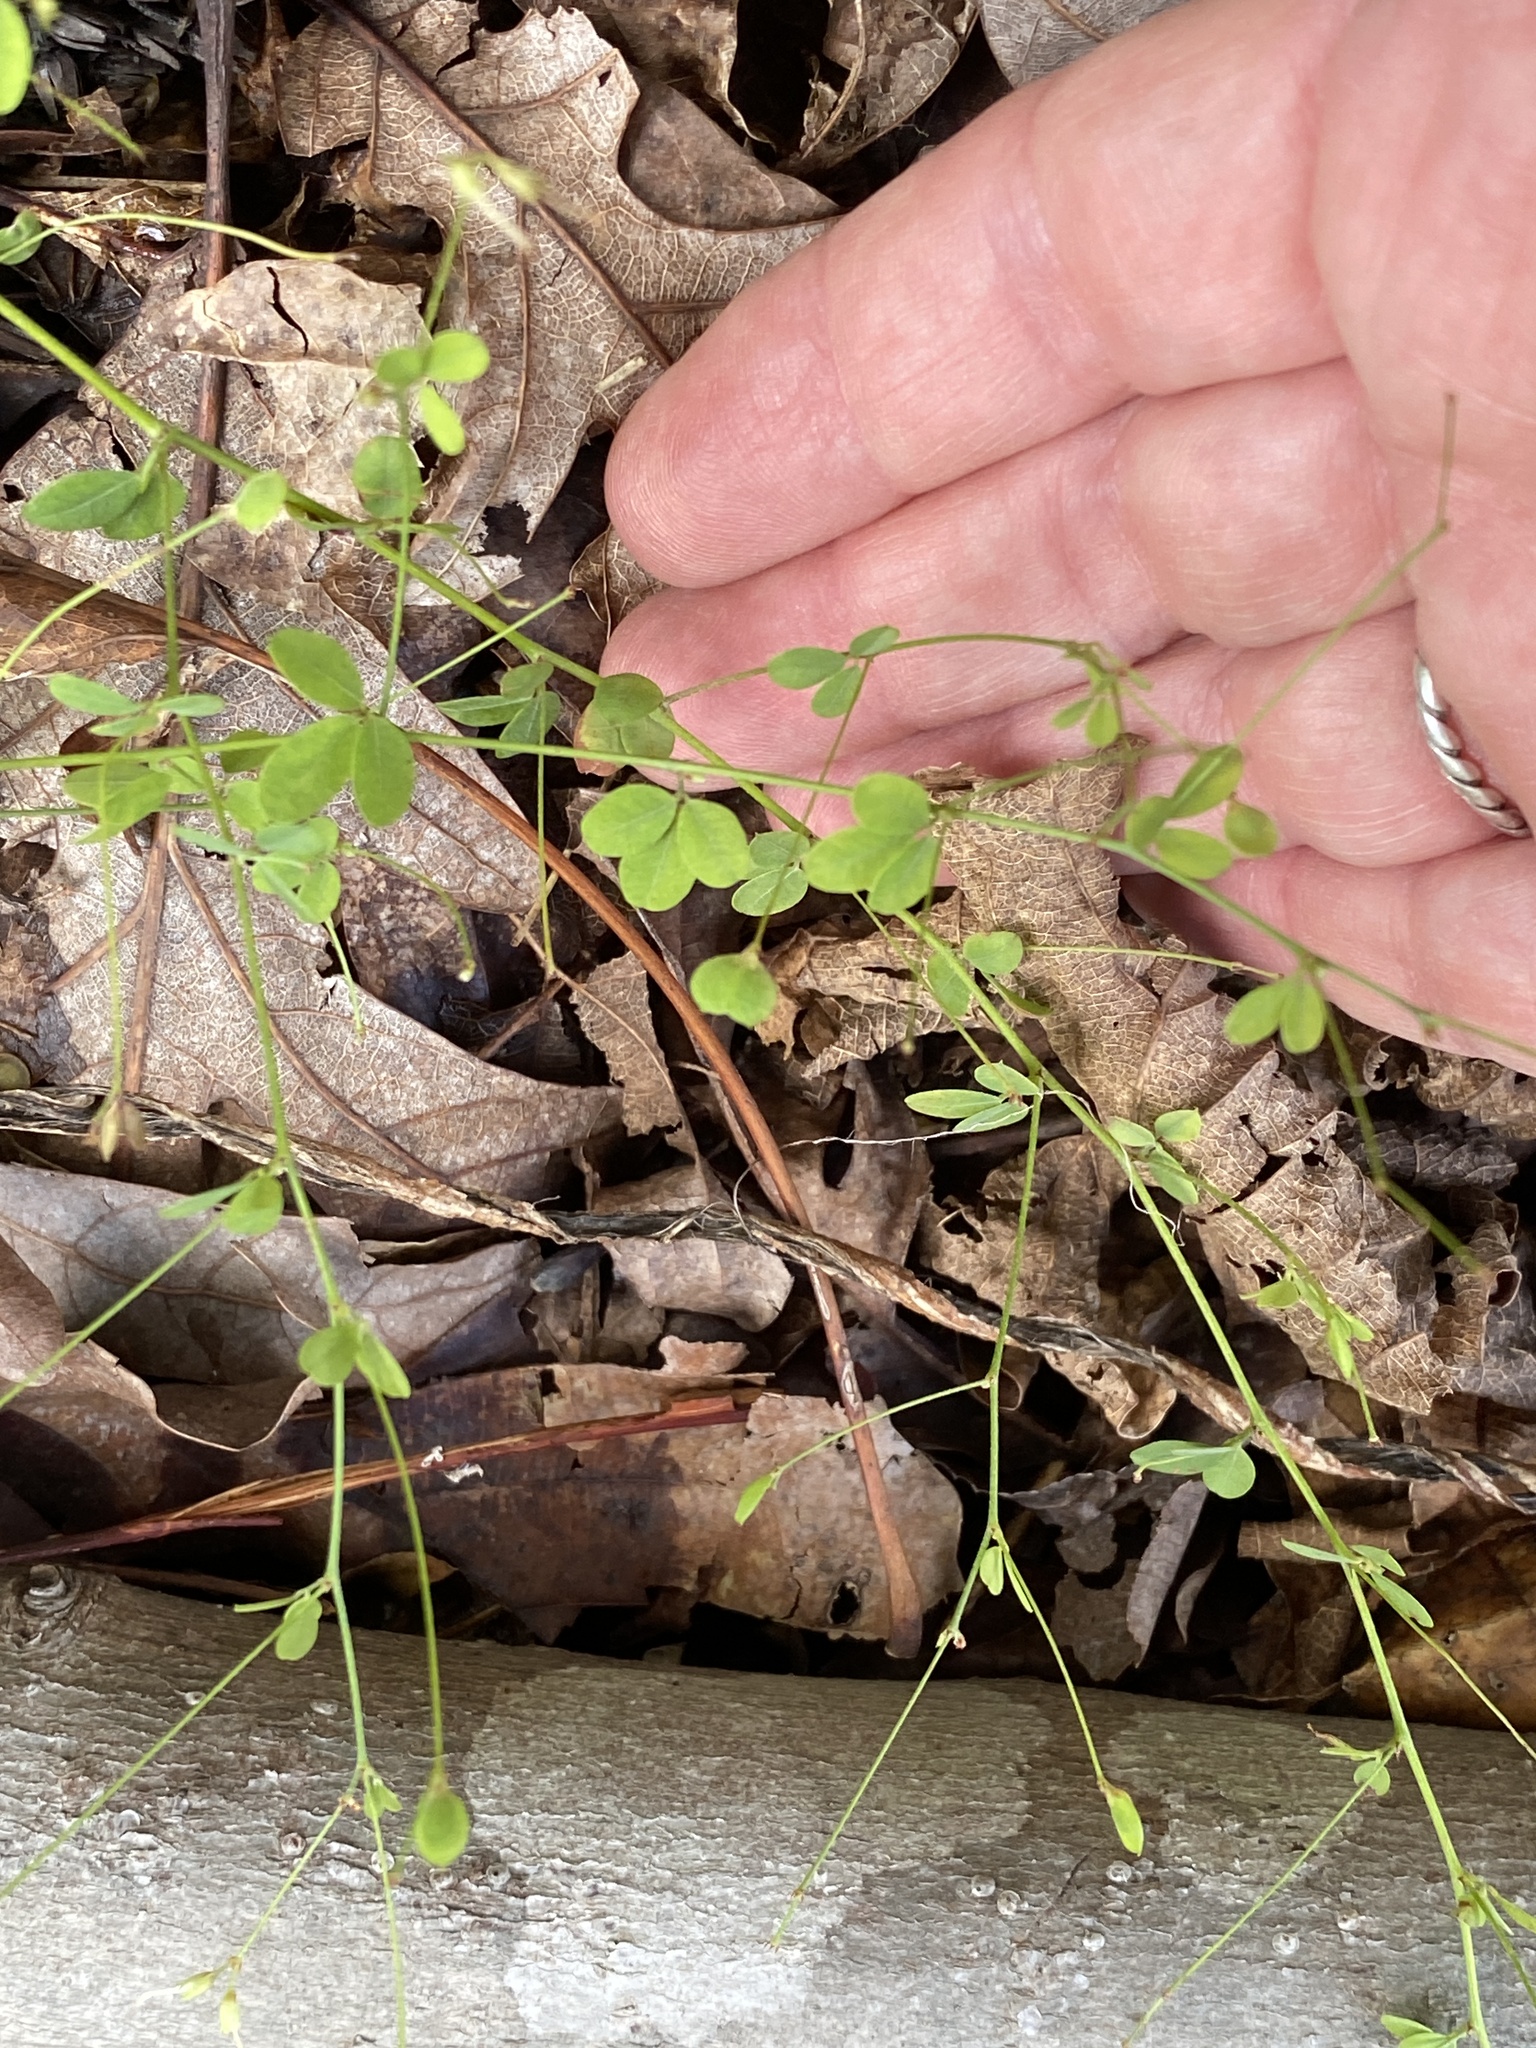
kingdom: Plantae
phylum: Tracheophyta
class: Magnoliopsida
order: Fabales
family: Fabaceae
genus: Lespedeza
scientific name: Lespedeza repens
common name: Creeping bush-clover
